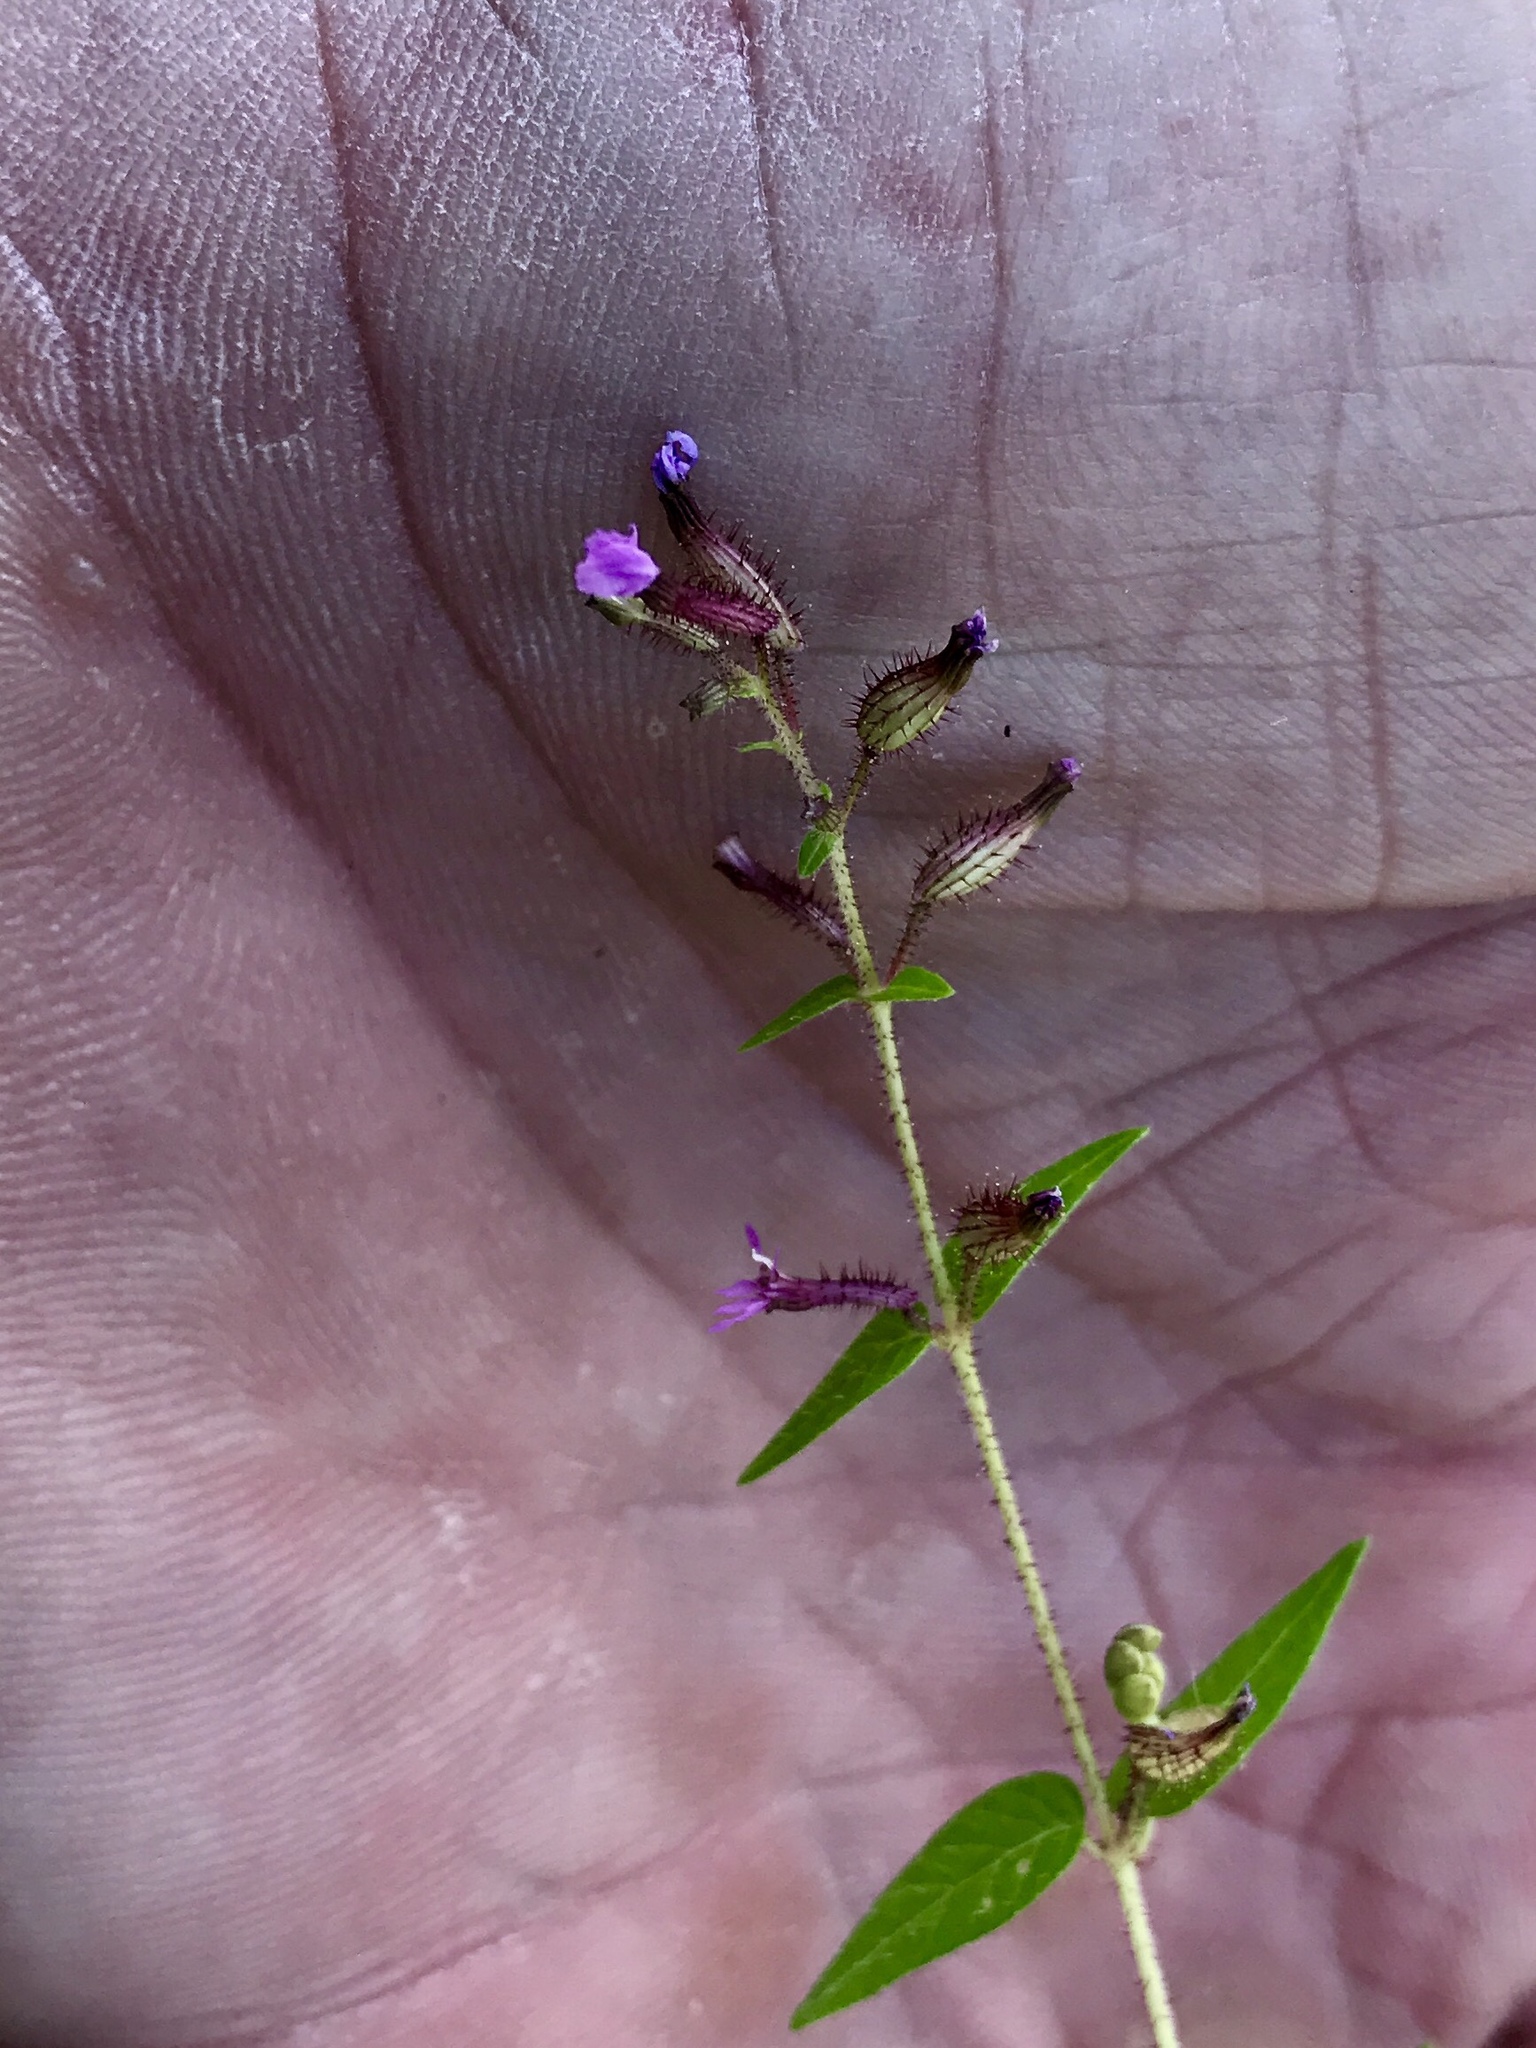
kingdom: Plantae
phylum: Tracheophyta
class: Magnoliopsida
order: Myrtales
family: Lythraceae
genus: Cuphea
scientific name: Cuphea wrightii
